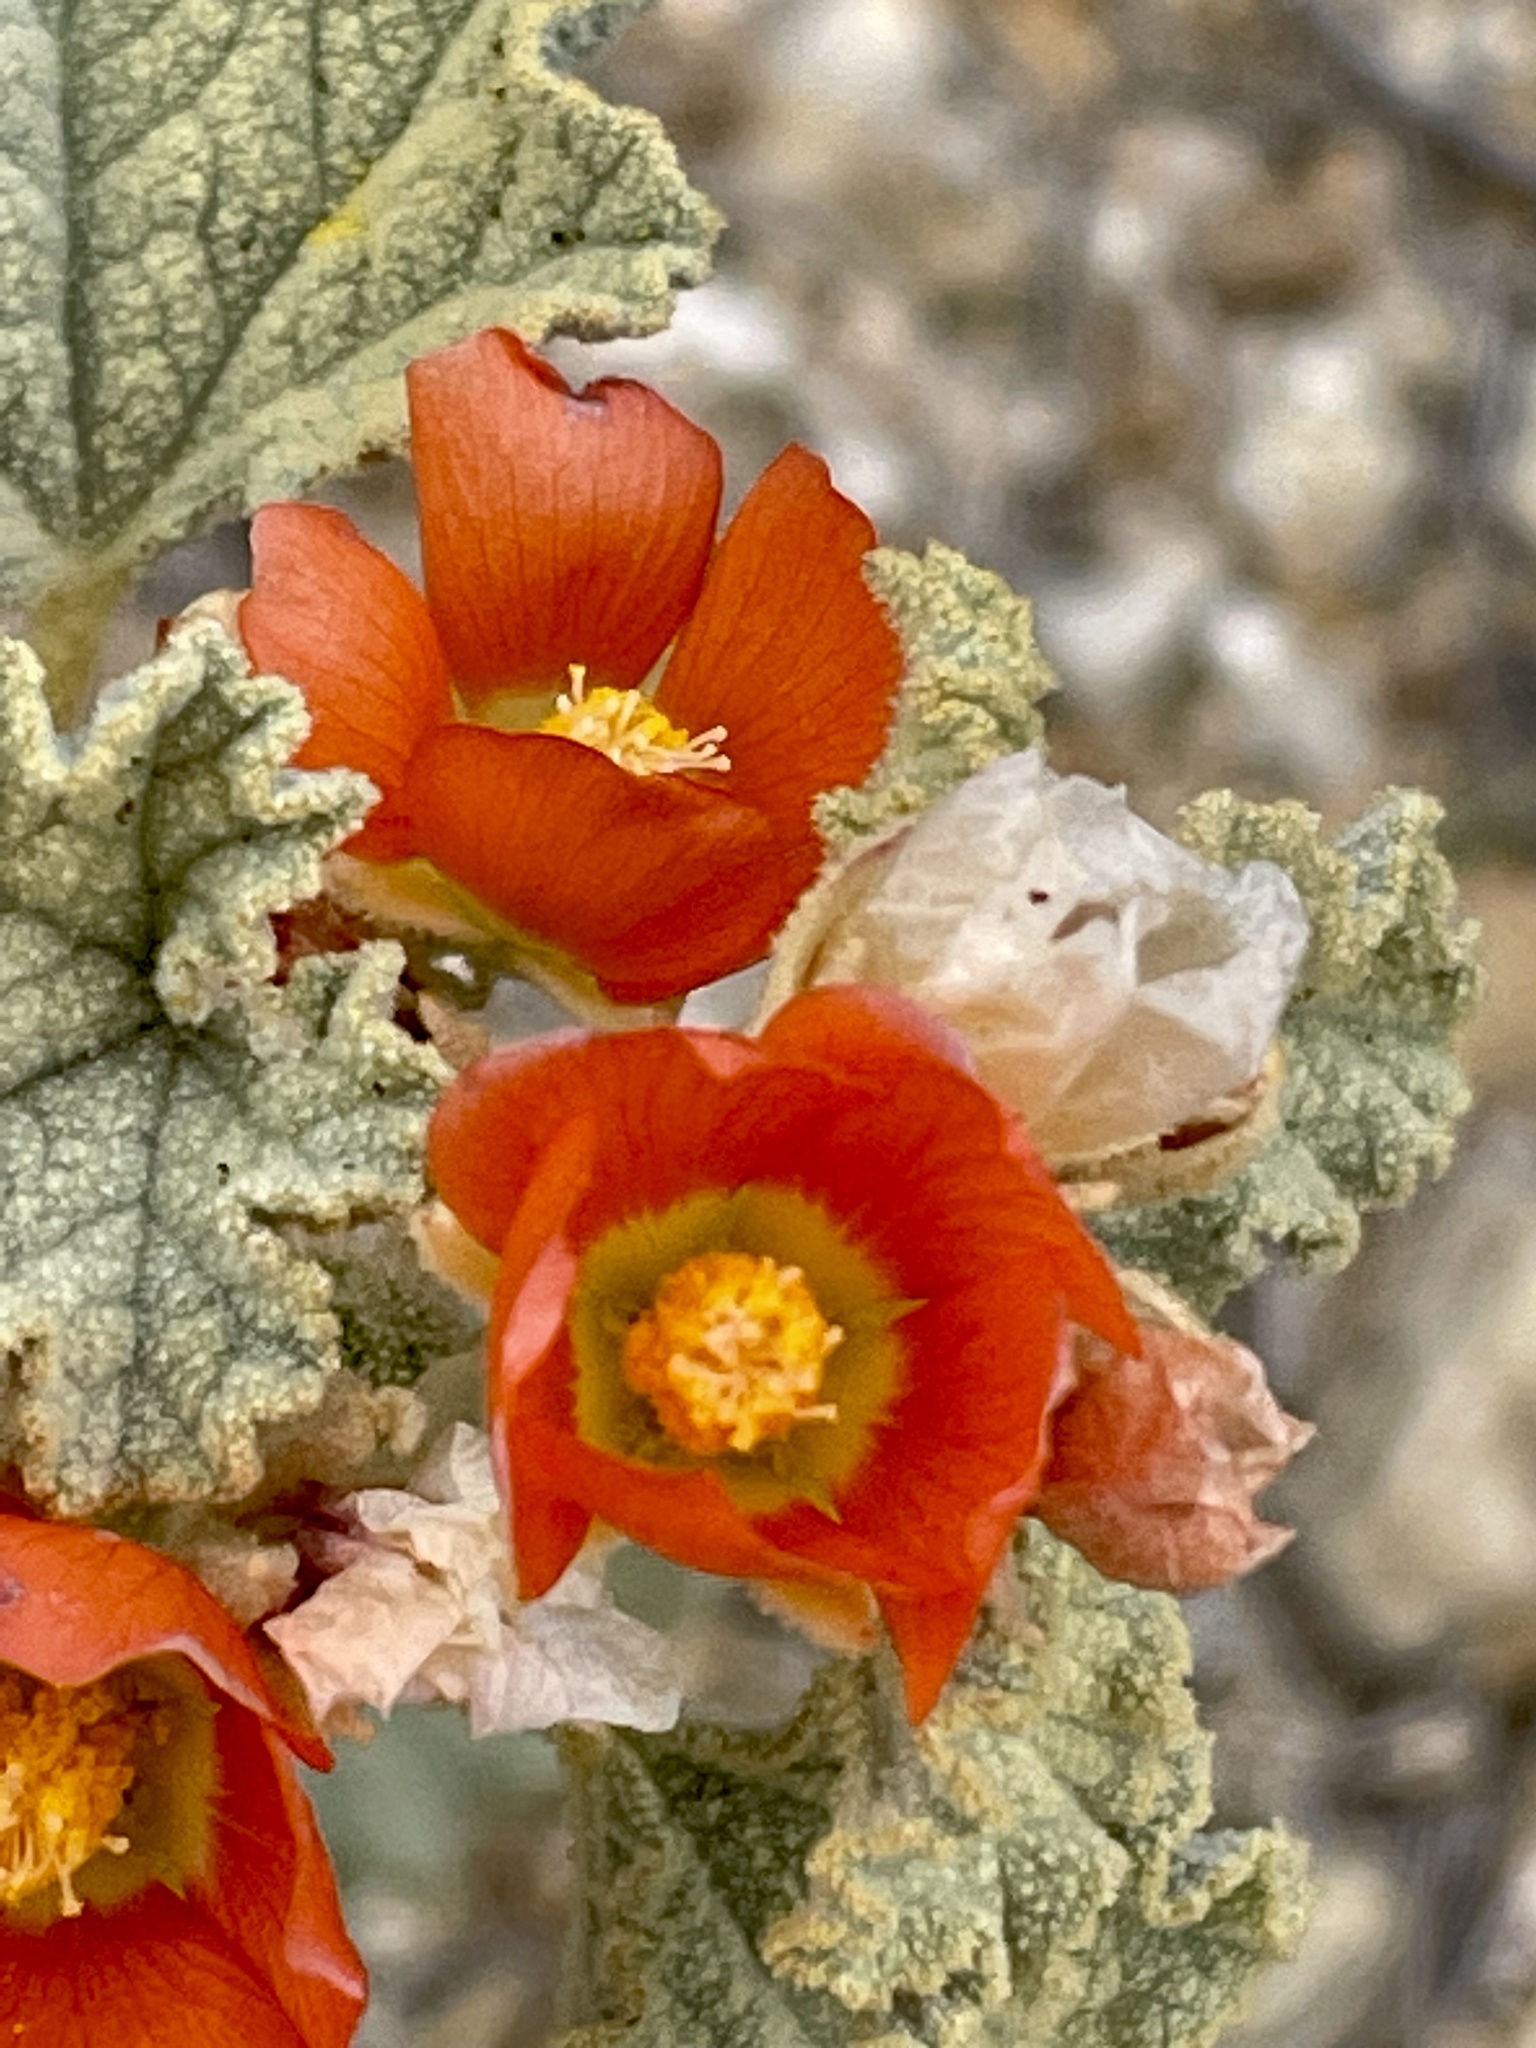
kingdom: Plantae
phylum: Tracheophyta
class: Magnoliopsida
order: Malvales
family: Malvaceae
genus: Sphaeralcea
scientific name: Sphaeralcea ambigua
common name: Apricot globe-mallow
